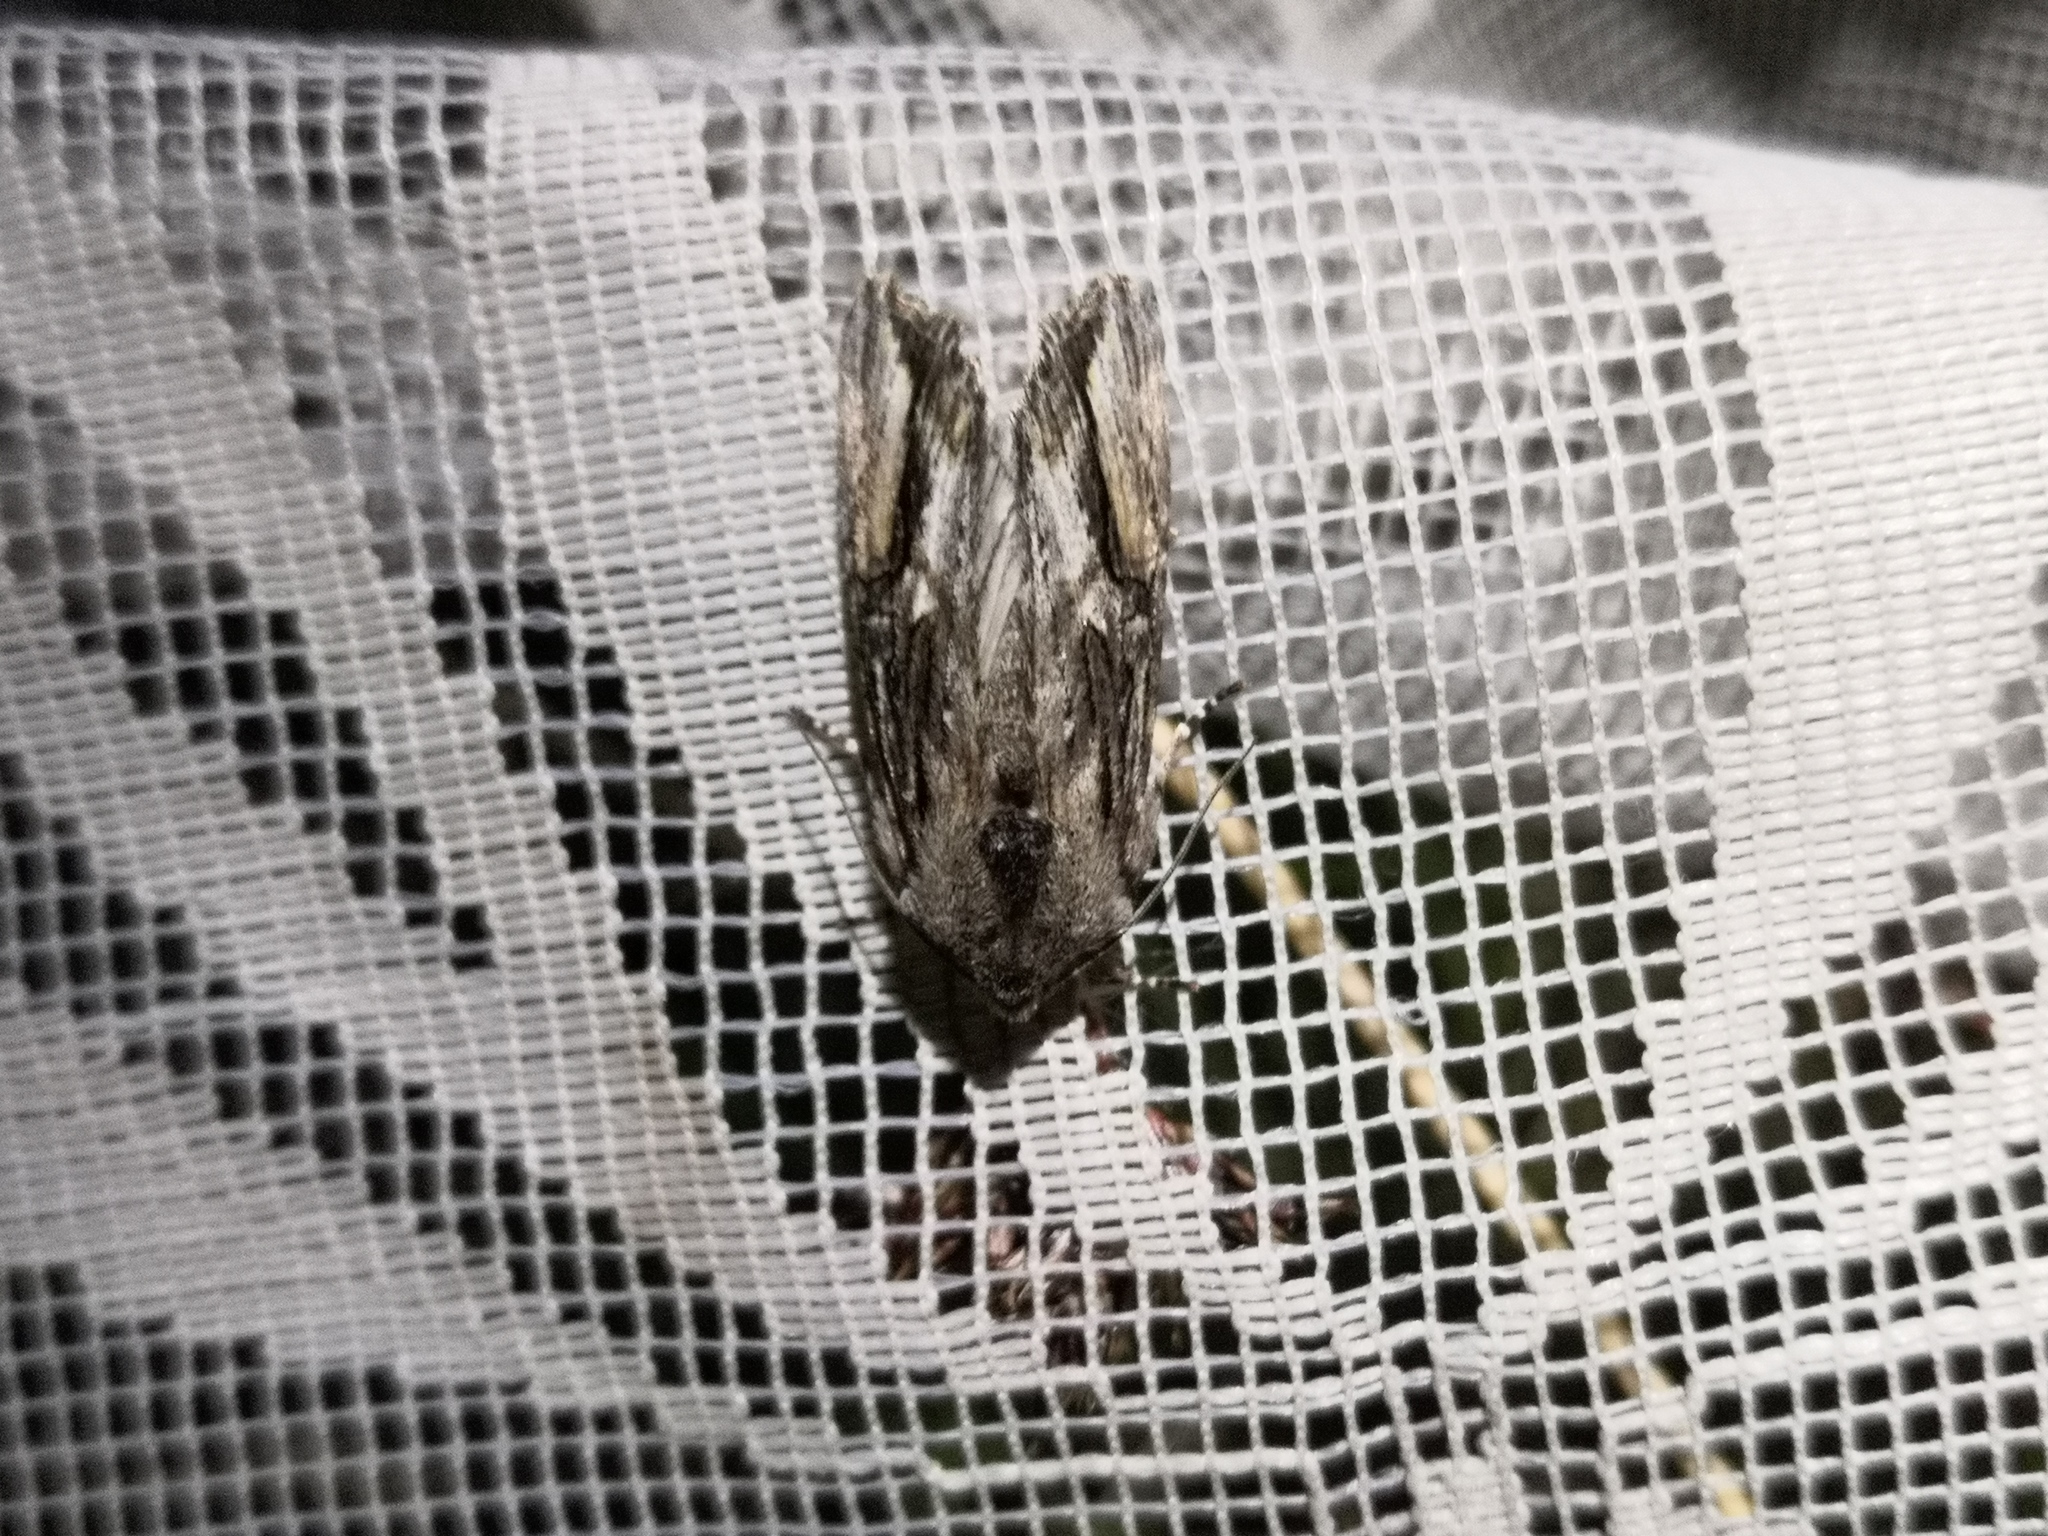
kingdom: Animalia
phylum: Arthropoda
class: Insecta
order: Lepidoptera
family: Noctuidae
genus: Egira
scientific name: Egira conspicillaris
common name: Silver cloud
